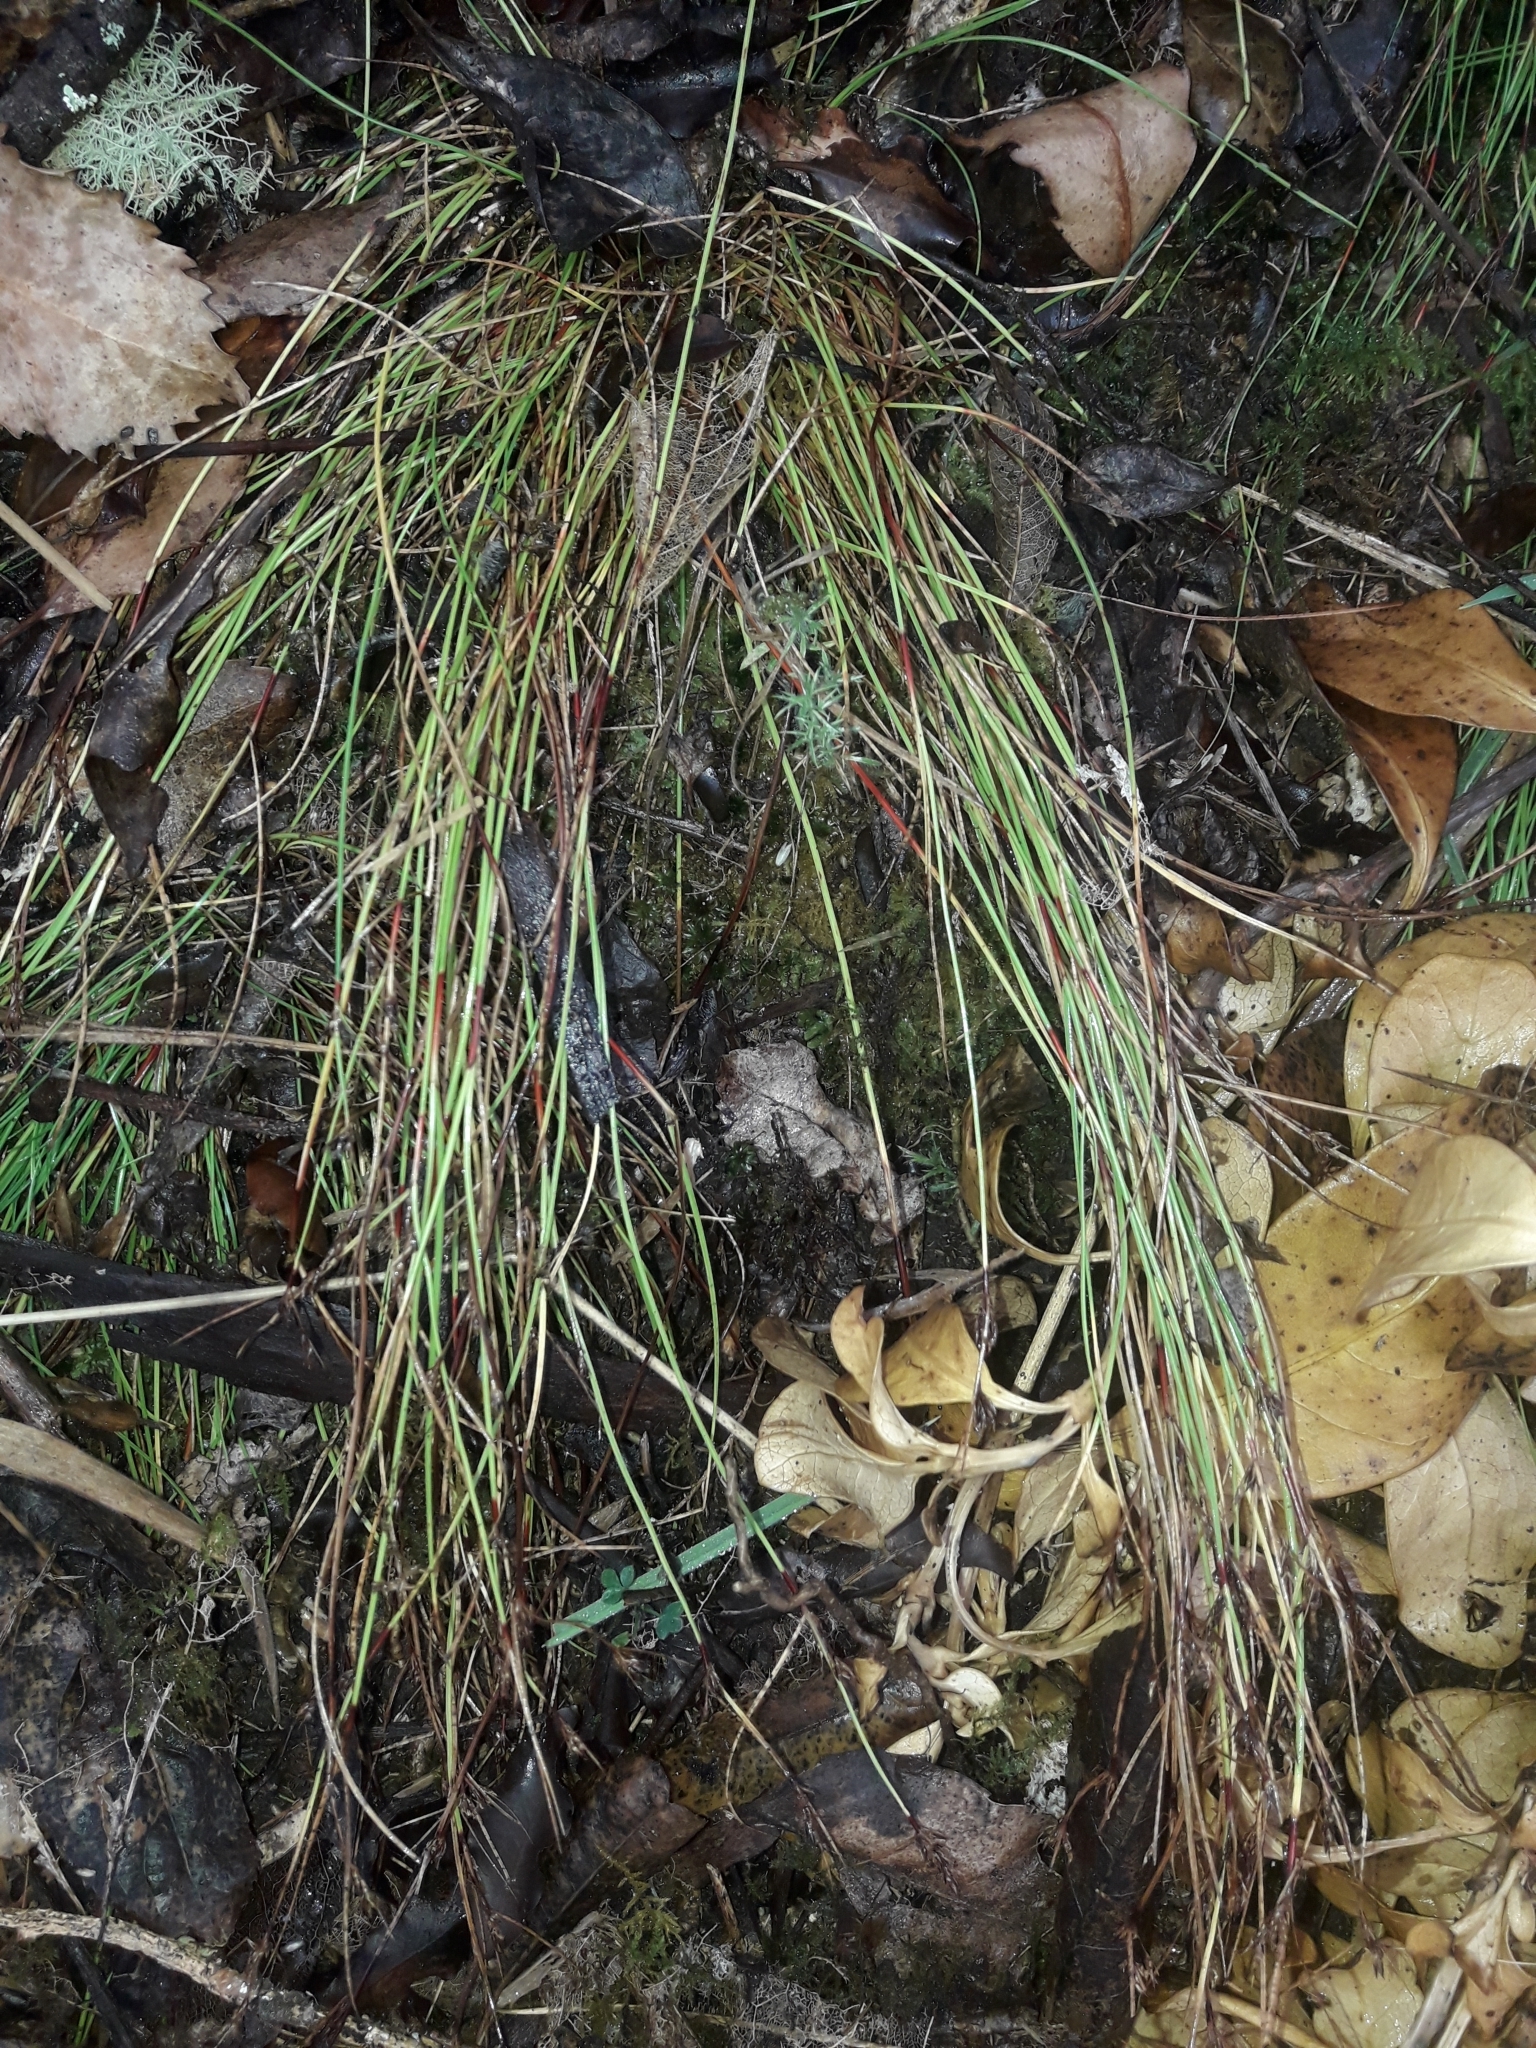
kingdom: Plantae
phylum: Tracheophyta
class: Liliopsida
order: Poales
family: Cyperaceae
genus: Schoenus
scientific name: Schoenus apogon
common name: Smooth bogrush
